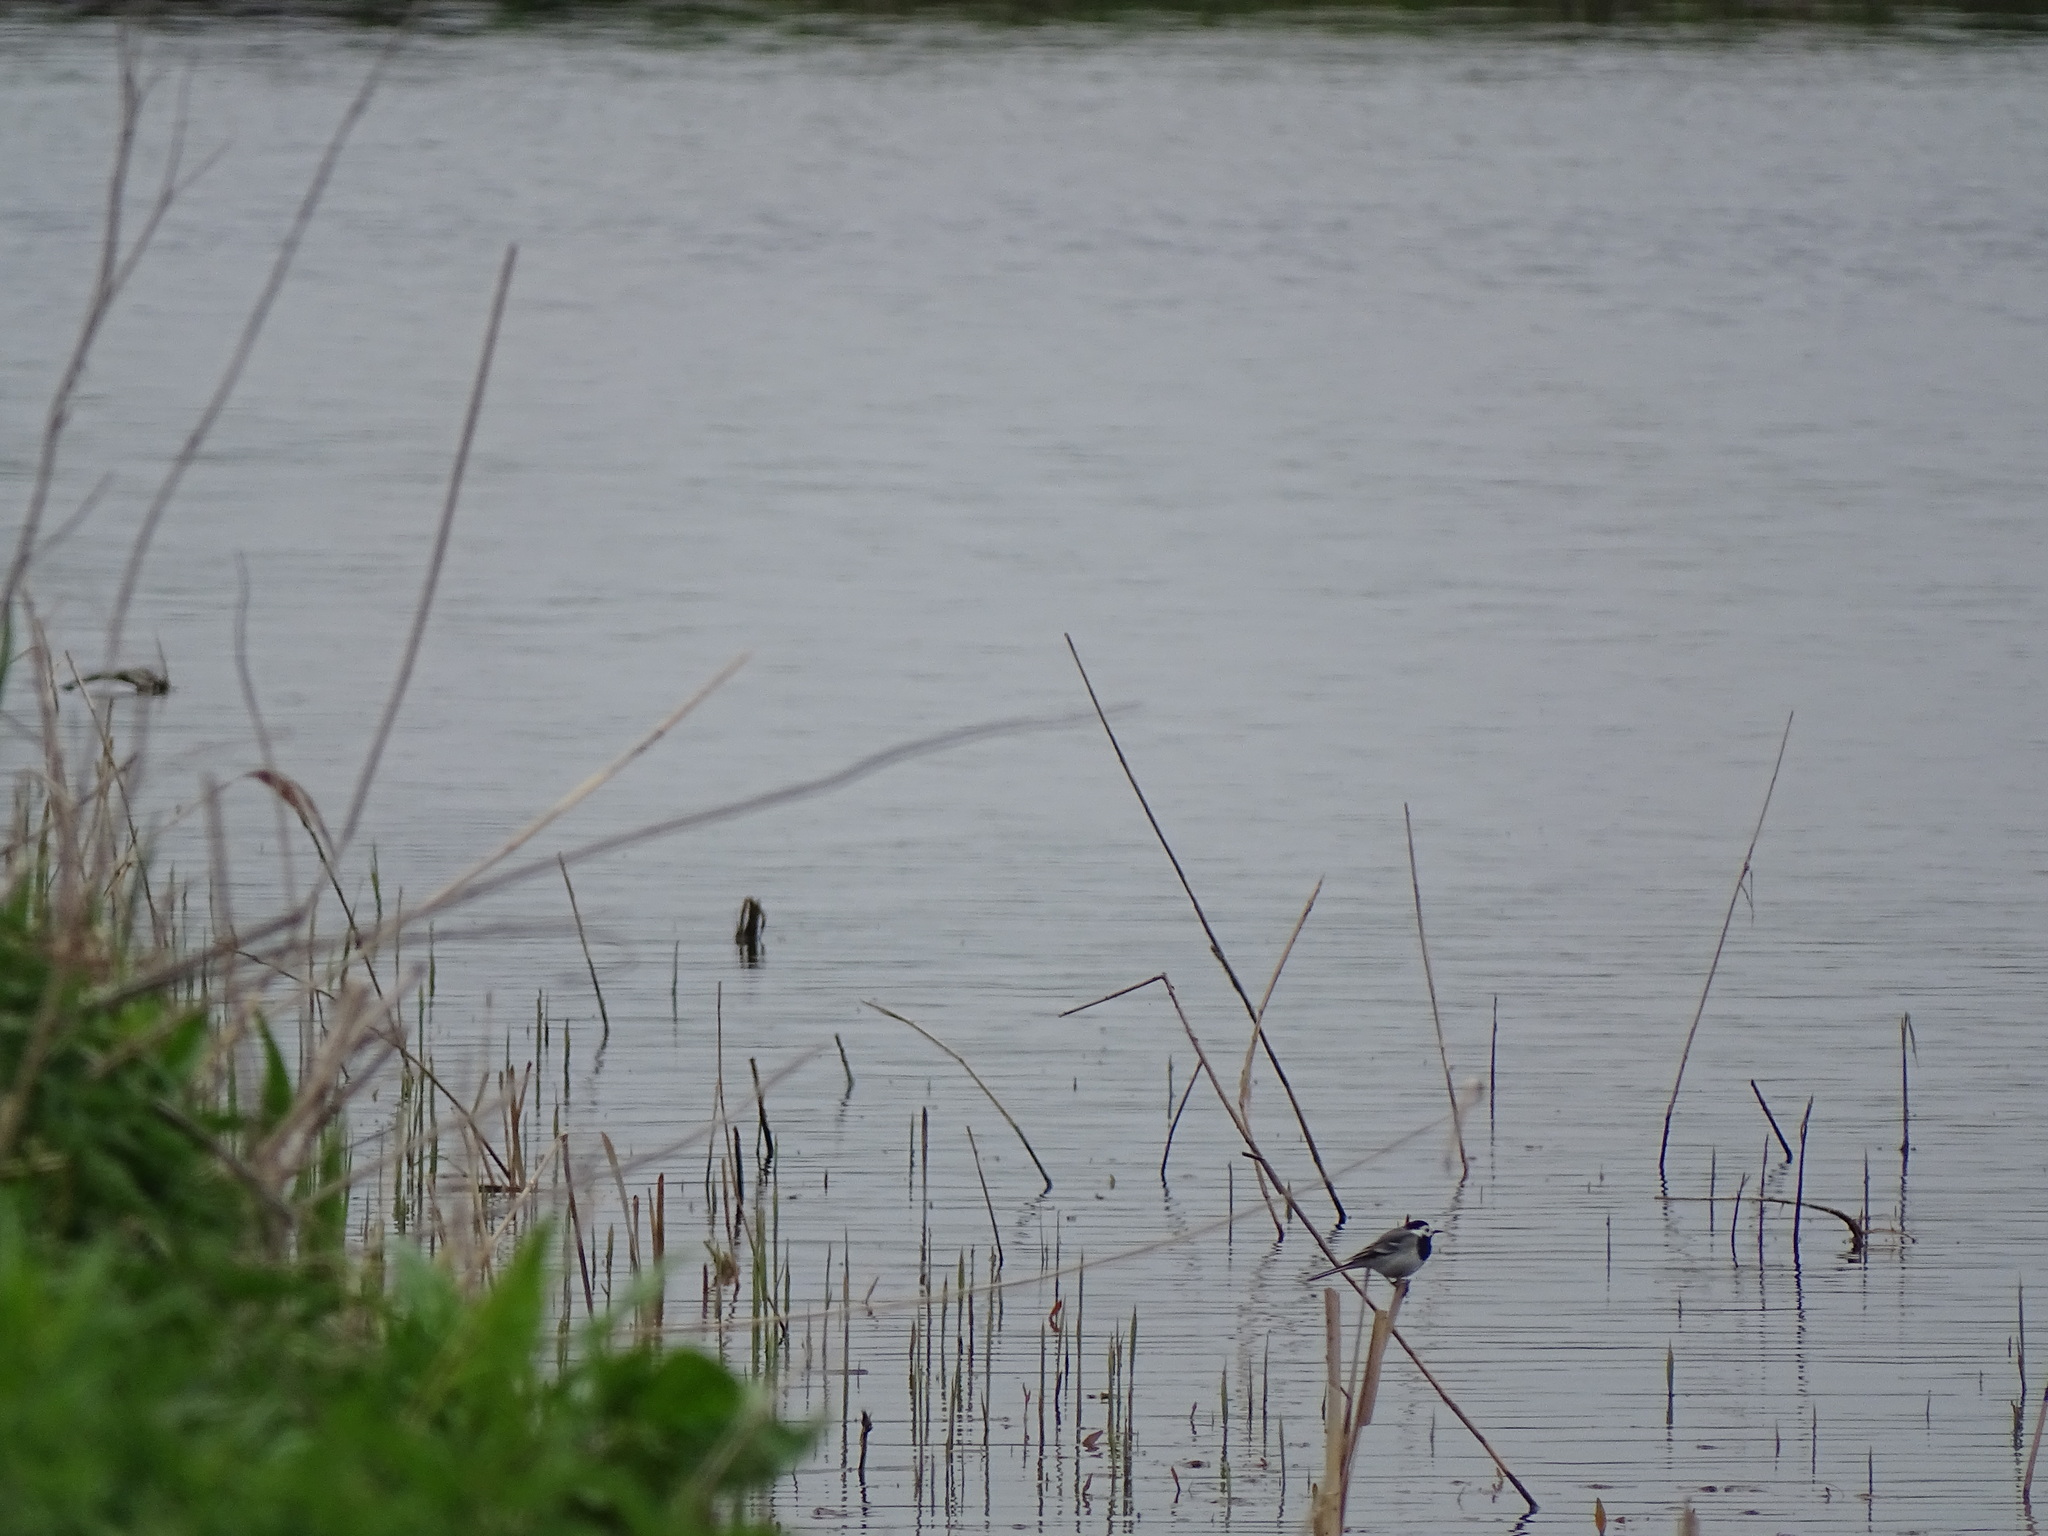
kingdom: Animalia
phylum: Chordata
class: Aves
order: Passeriformes
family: Motacillidae
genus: Motacilla
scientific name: Motacilla alba
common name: White wagtail
